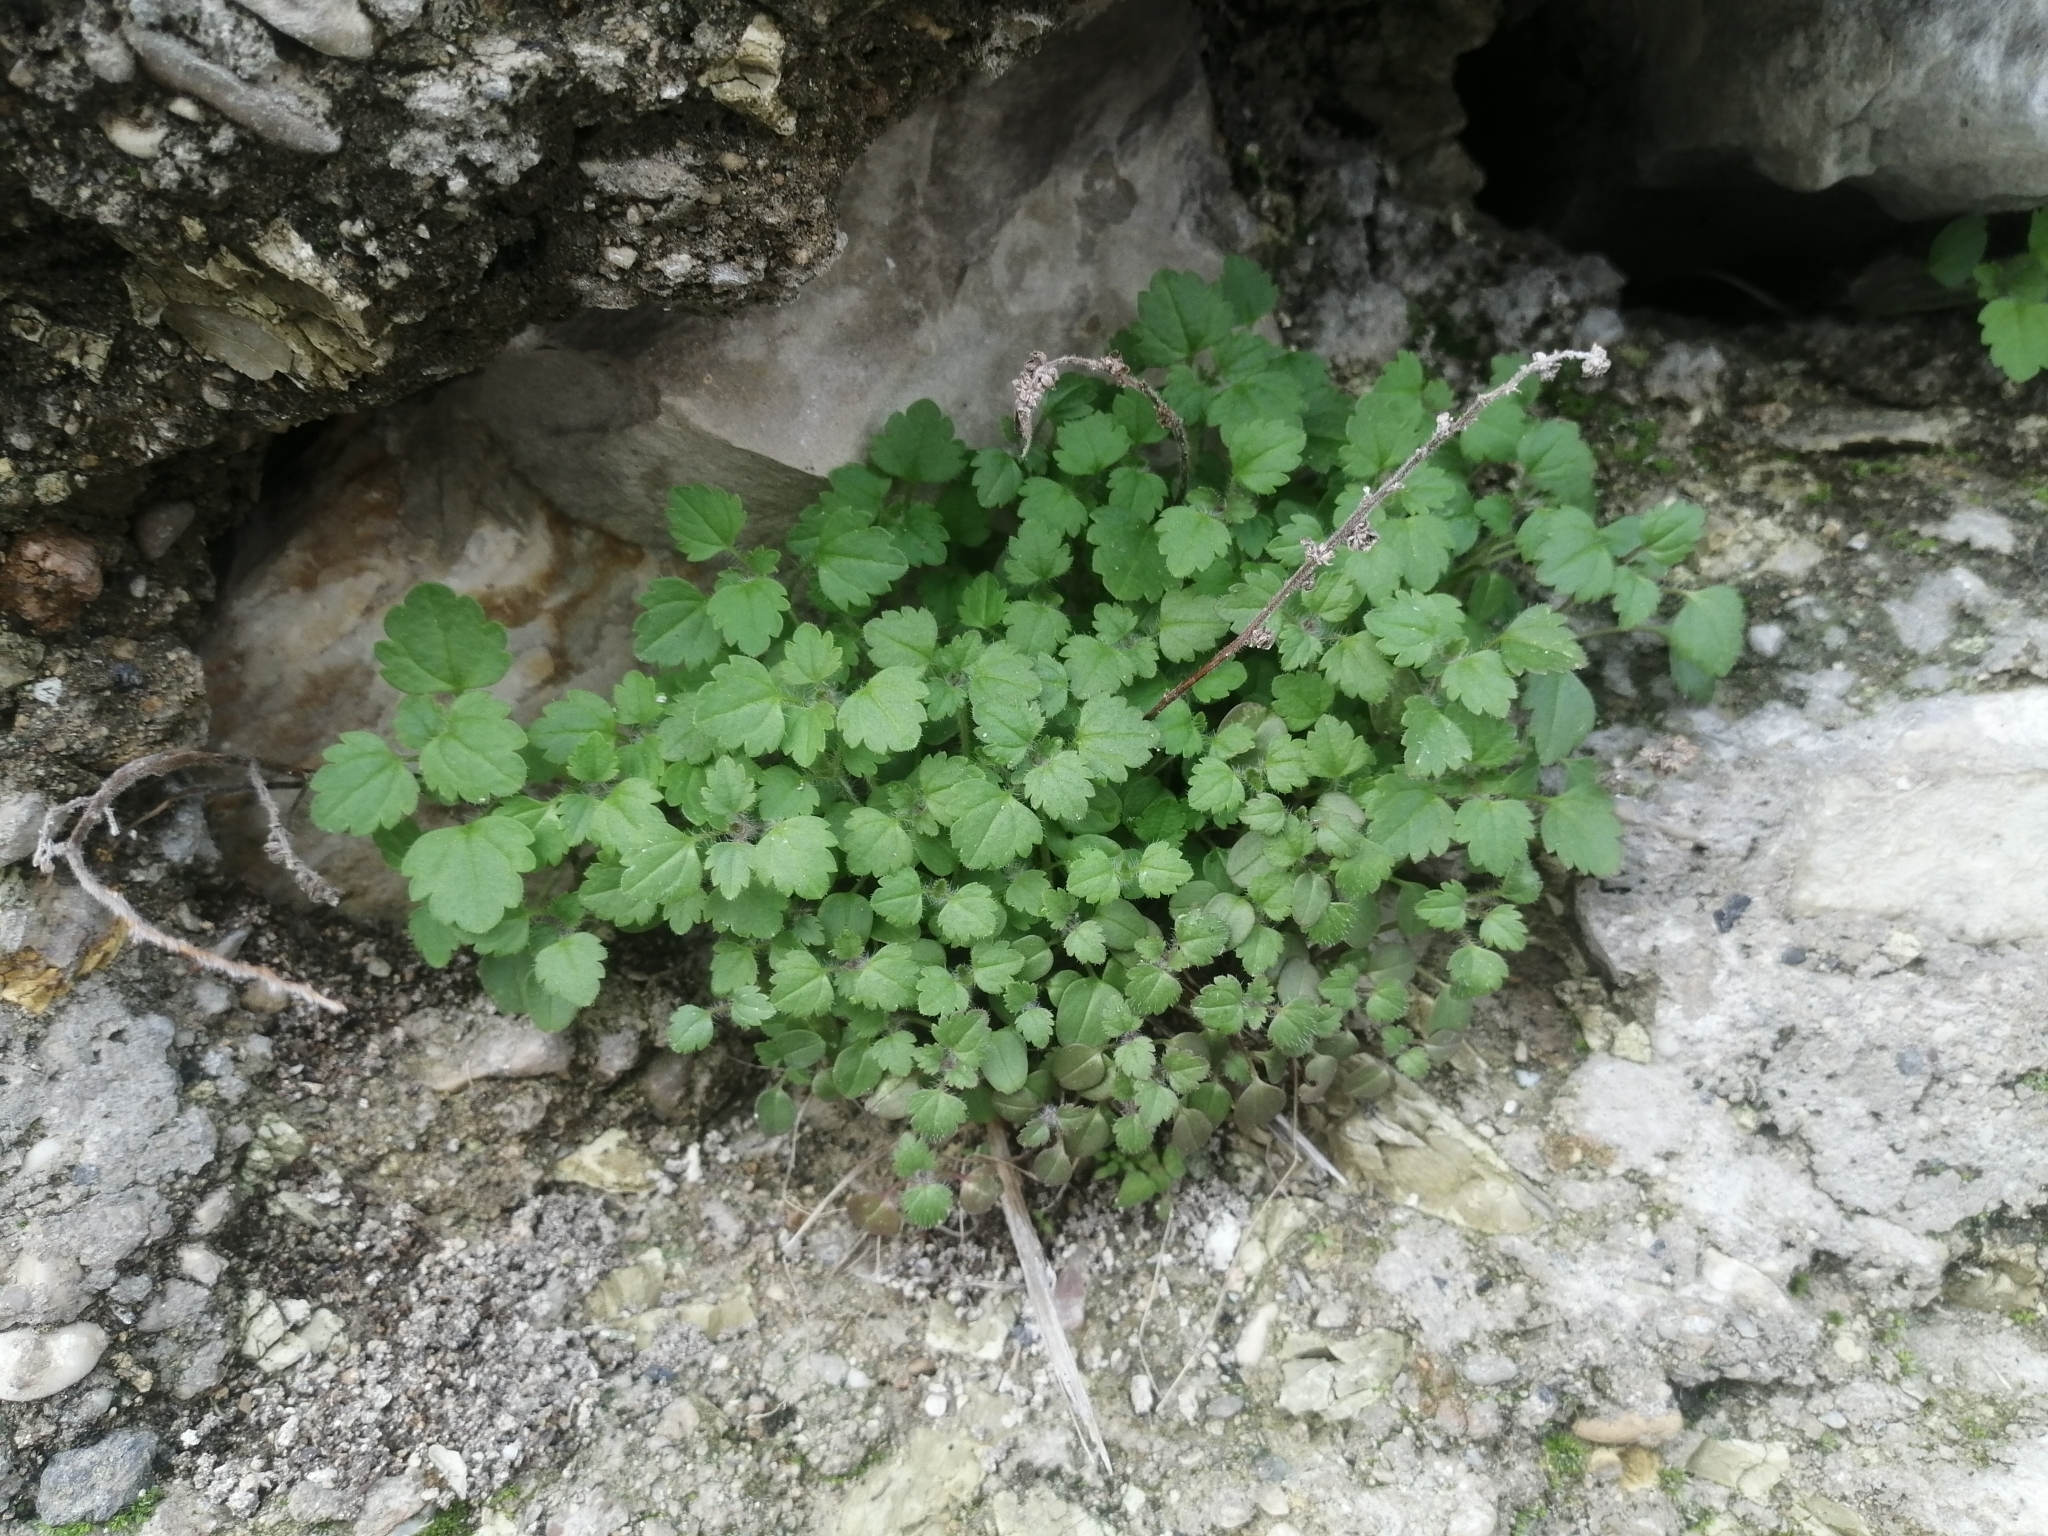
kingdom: Plantae
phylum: Tracheophyta
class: Magnoliopsida
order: Lamiales
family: Plantaginaceae
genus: Veronica
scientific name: Veronica cymbalaria
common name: Pale speedwell
